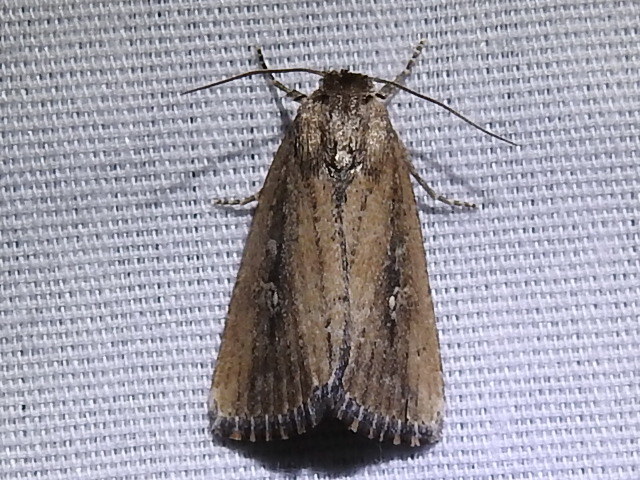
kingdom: Animalia
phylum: Arthropoda
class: Insecta
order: Lepidoptera
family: Noctuidae
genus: Condica
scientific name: Condica videns
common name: White-dotted groundling
